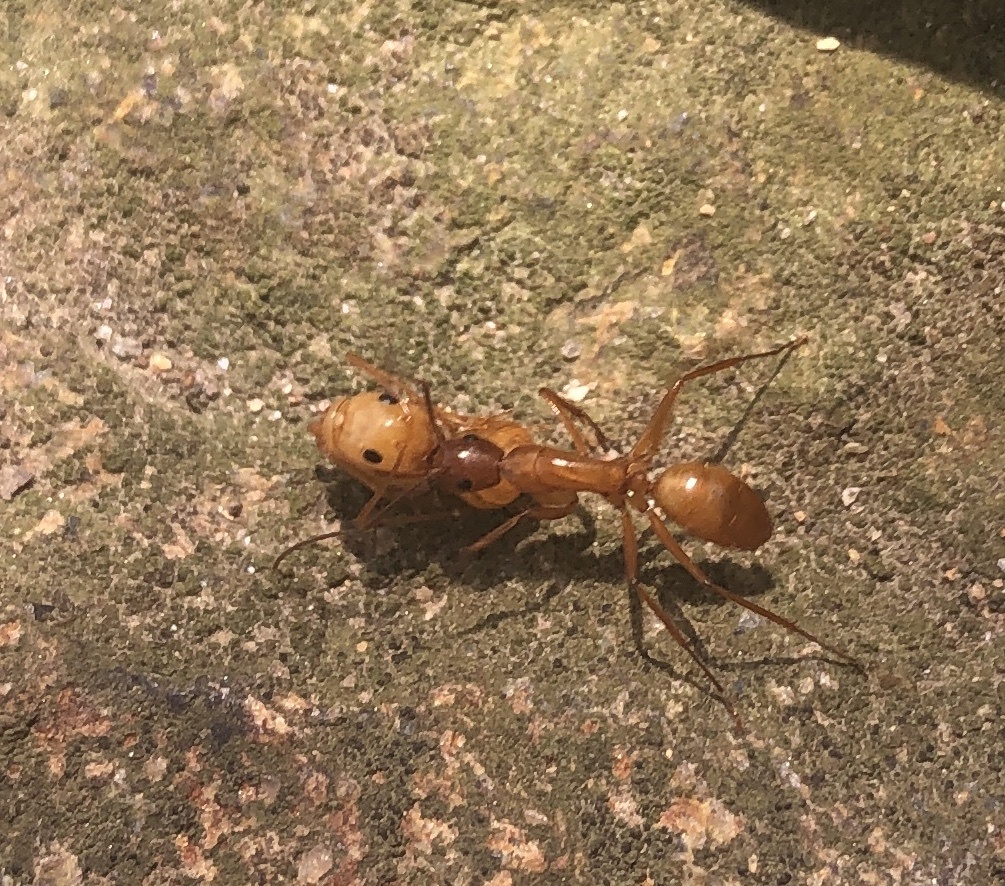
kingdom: Animalia
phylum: Arthropoda
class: Insecta
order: Hymenoptera
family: Formicidae
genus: Camponotus
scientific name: Camponotus castaneus
